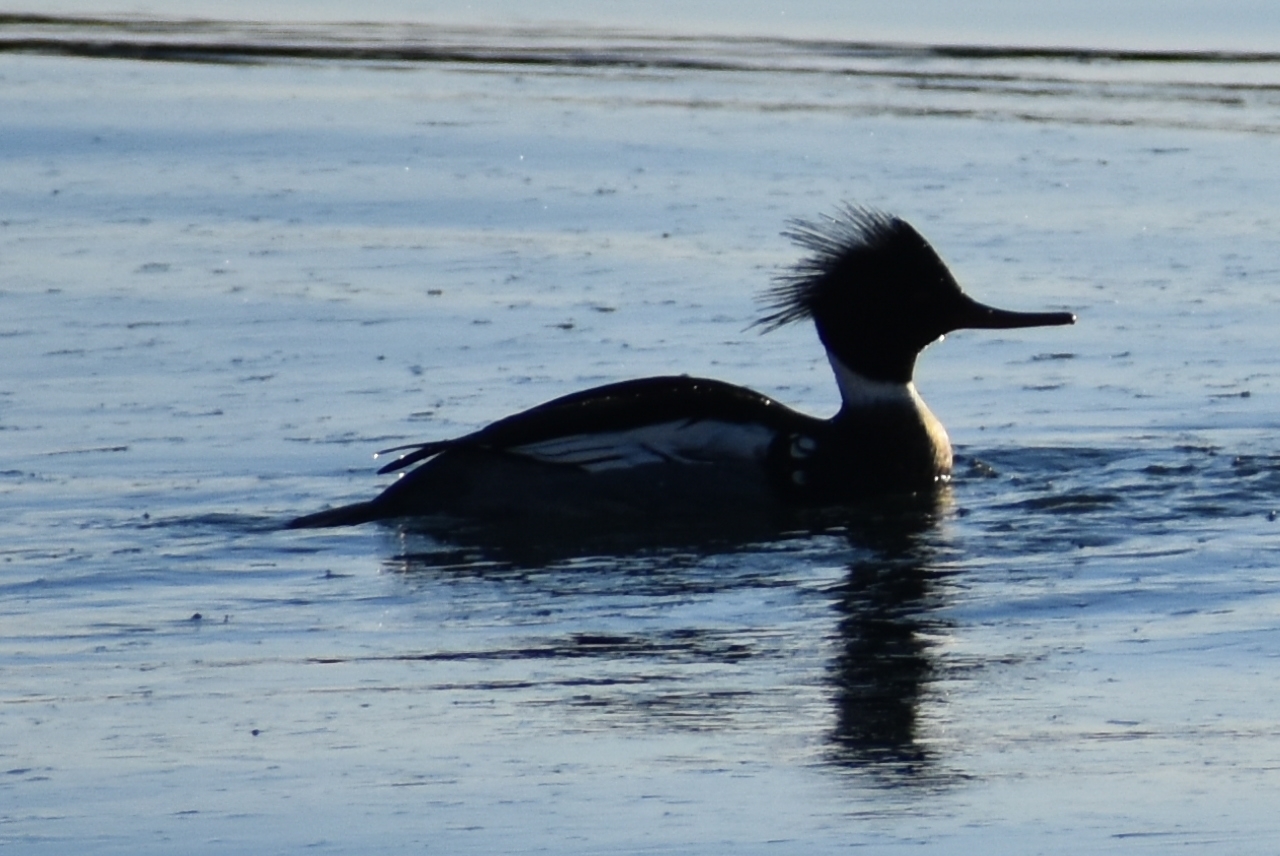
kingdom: Animalia
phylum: Chordata
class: Aves
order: Anseriformes
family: Anatidae
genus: Mergus
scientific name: Mergus serrator
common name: Red-breasted merganser
